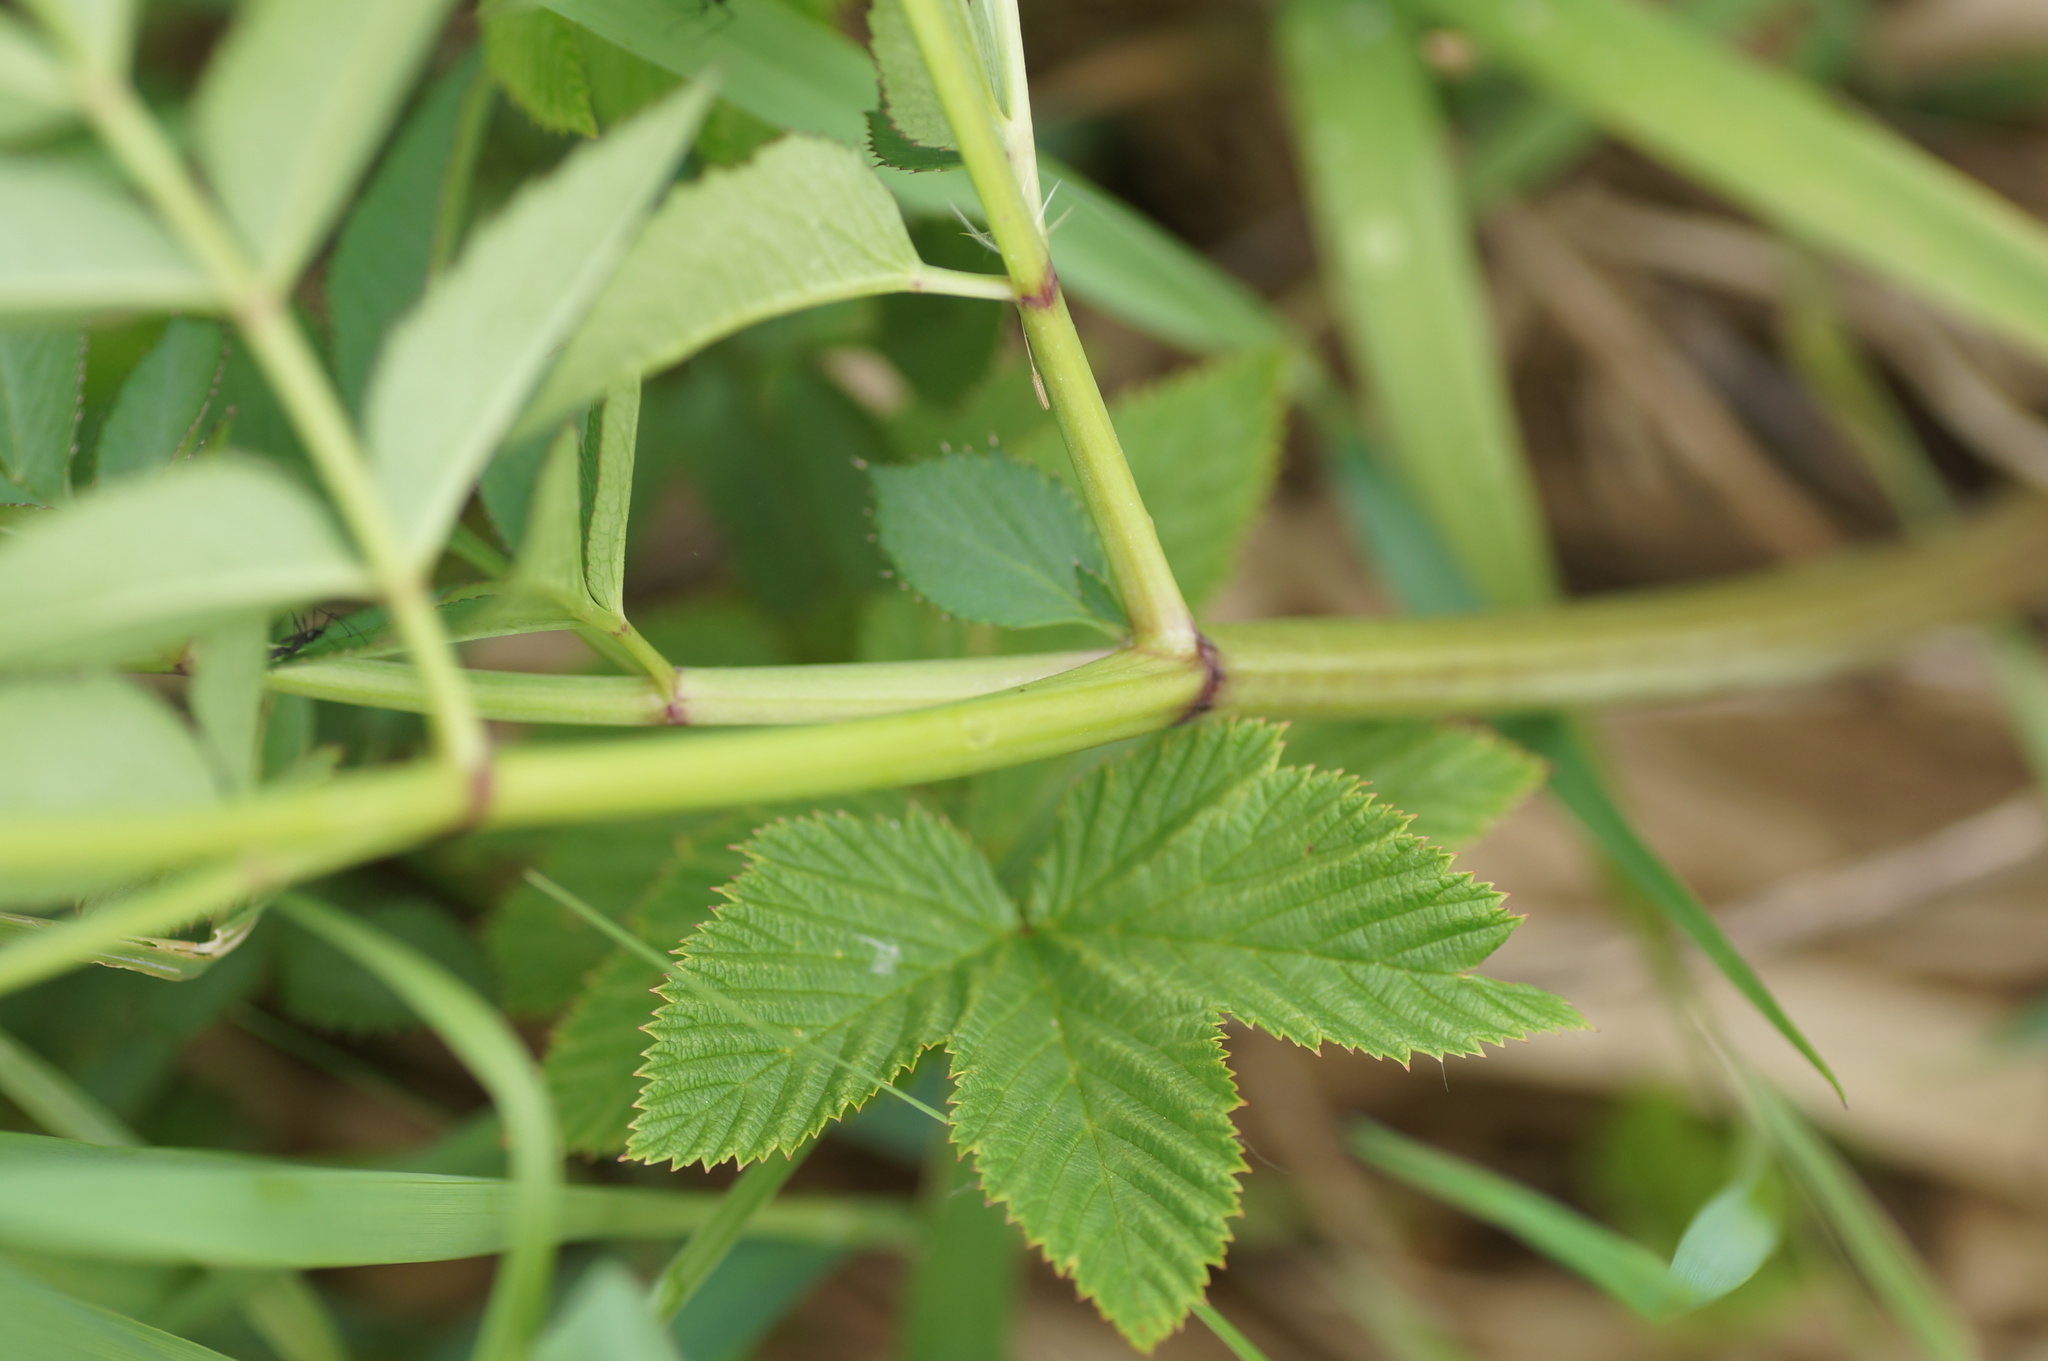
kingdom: Plantae
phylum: Tracheophyta
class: Magnoliopsida
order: Apiales
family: Apiaceae
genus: Angelica
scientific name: Angelica sylvestris
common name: Wild angelica
